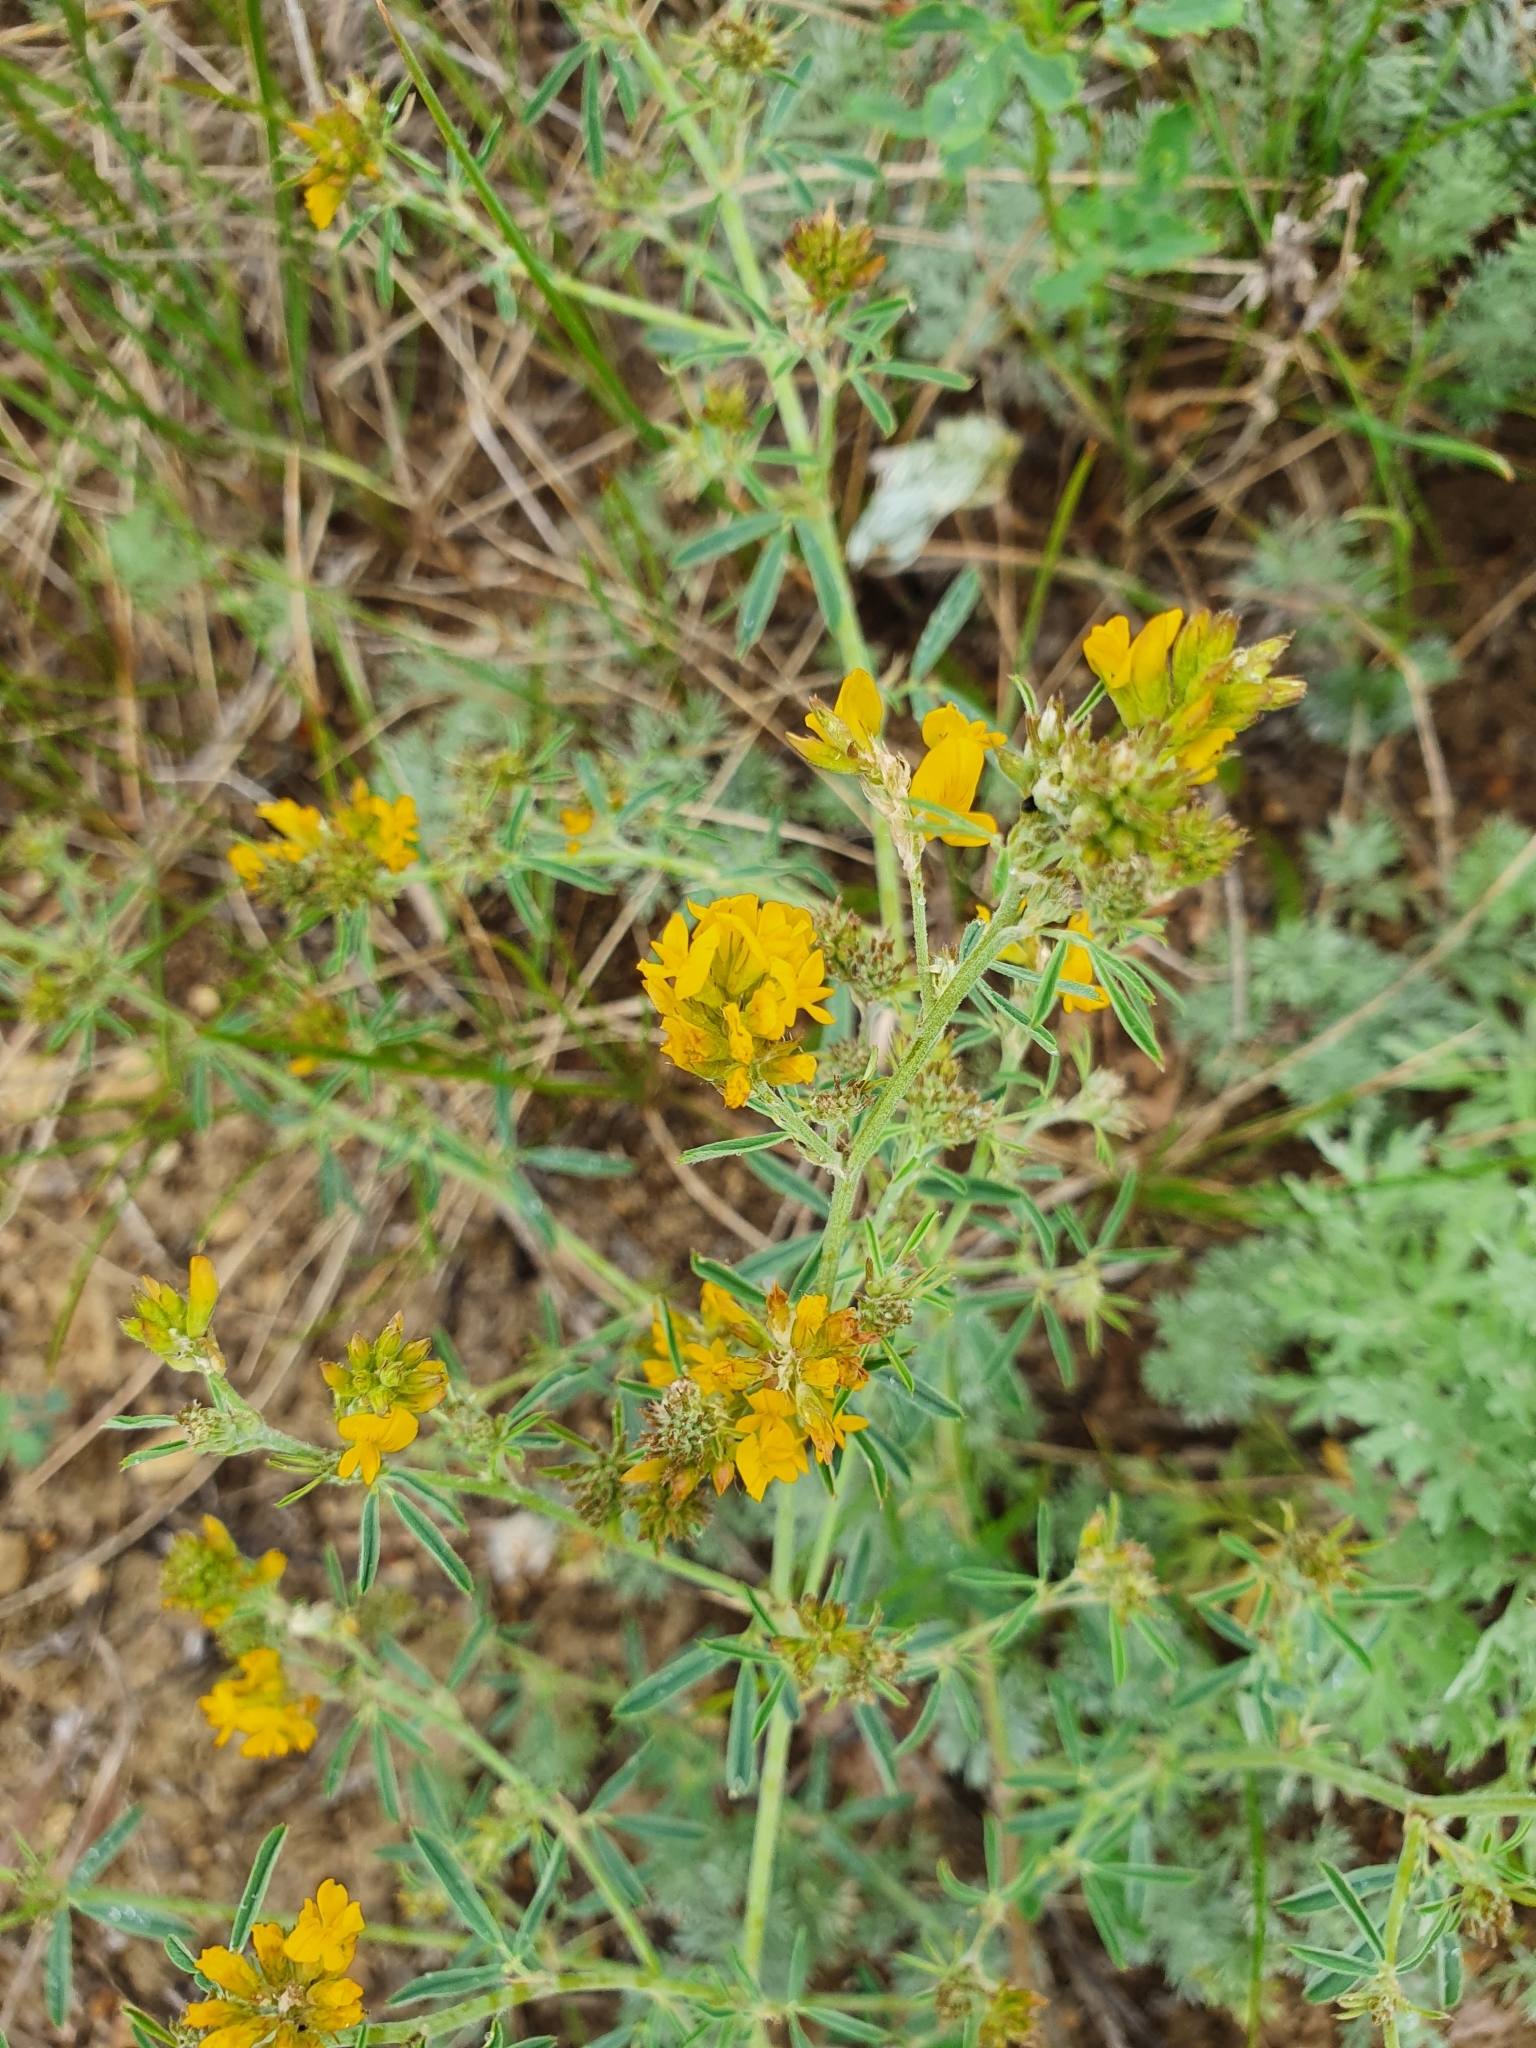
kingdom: Plantae
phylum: Tracheophyta
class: Magnoliopsida
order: Fabales
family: Fabaceae
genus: Medicago
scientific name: Medicago falcata
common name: Sickle medick
